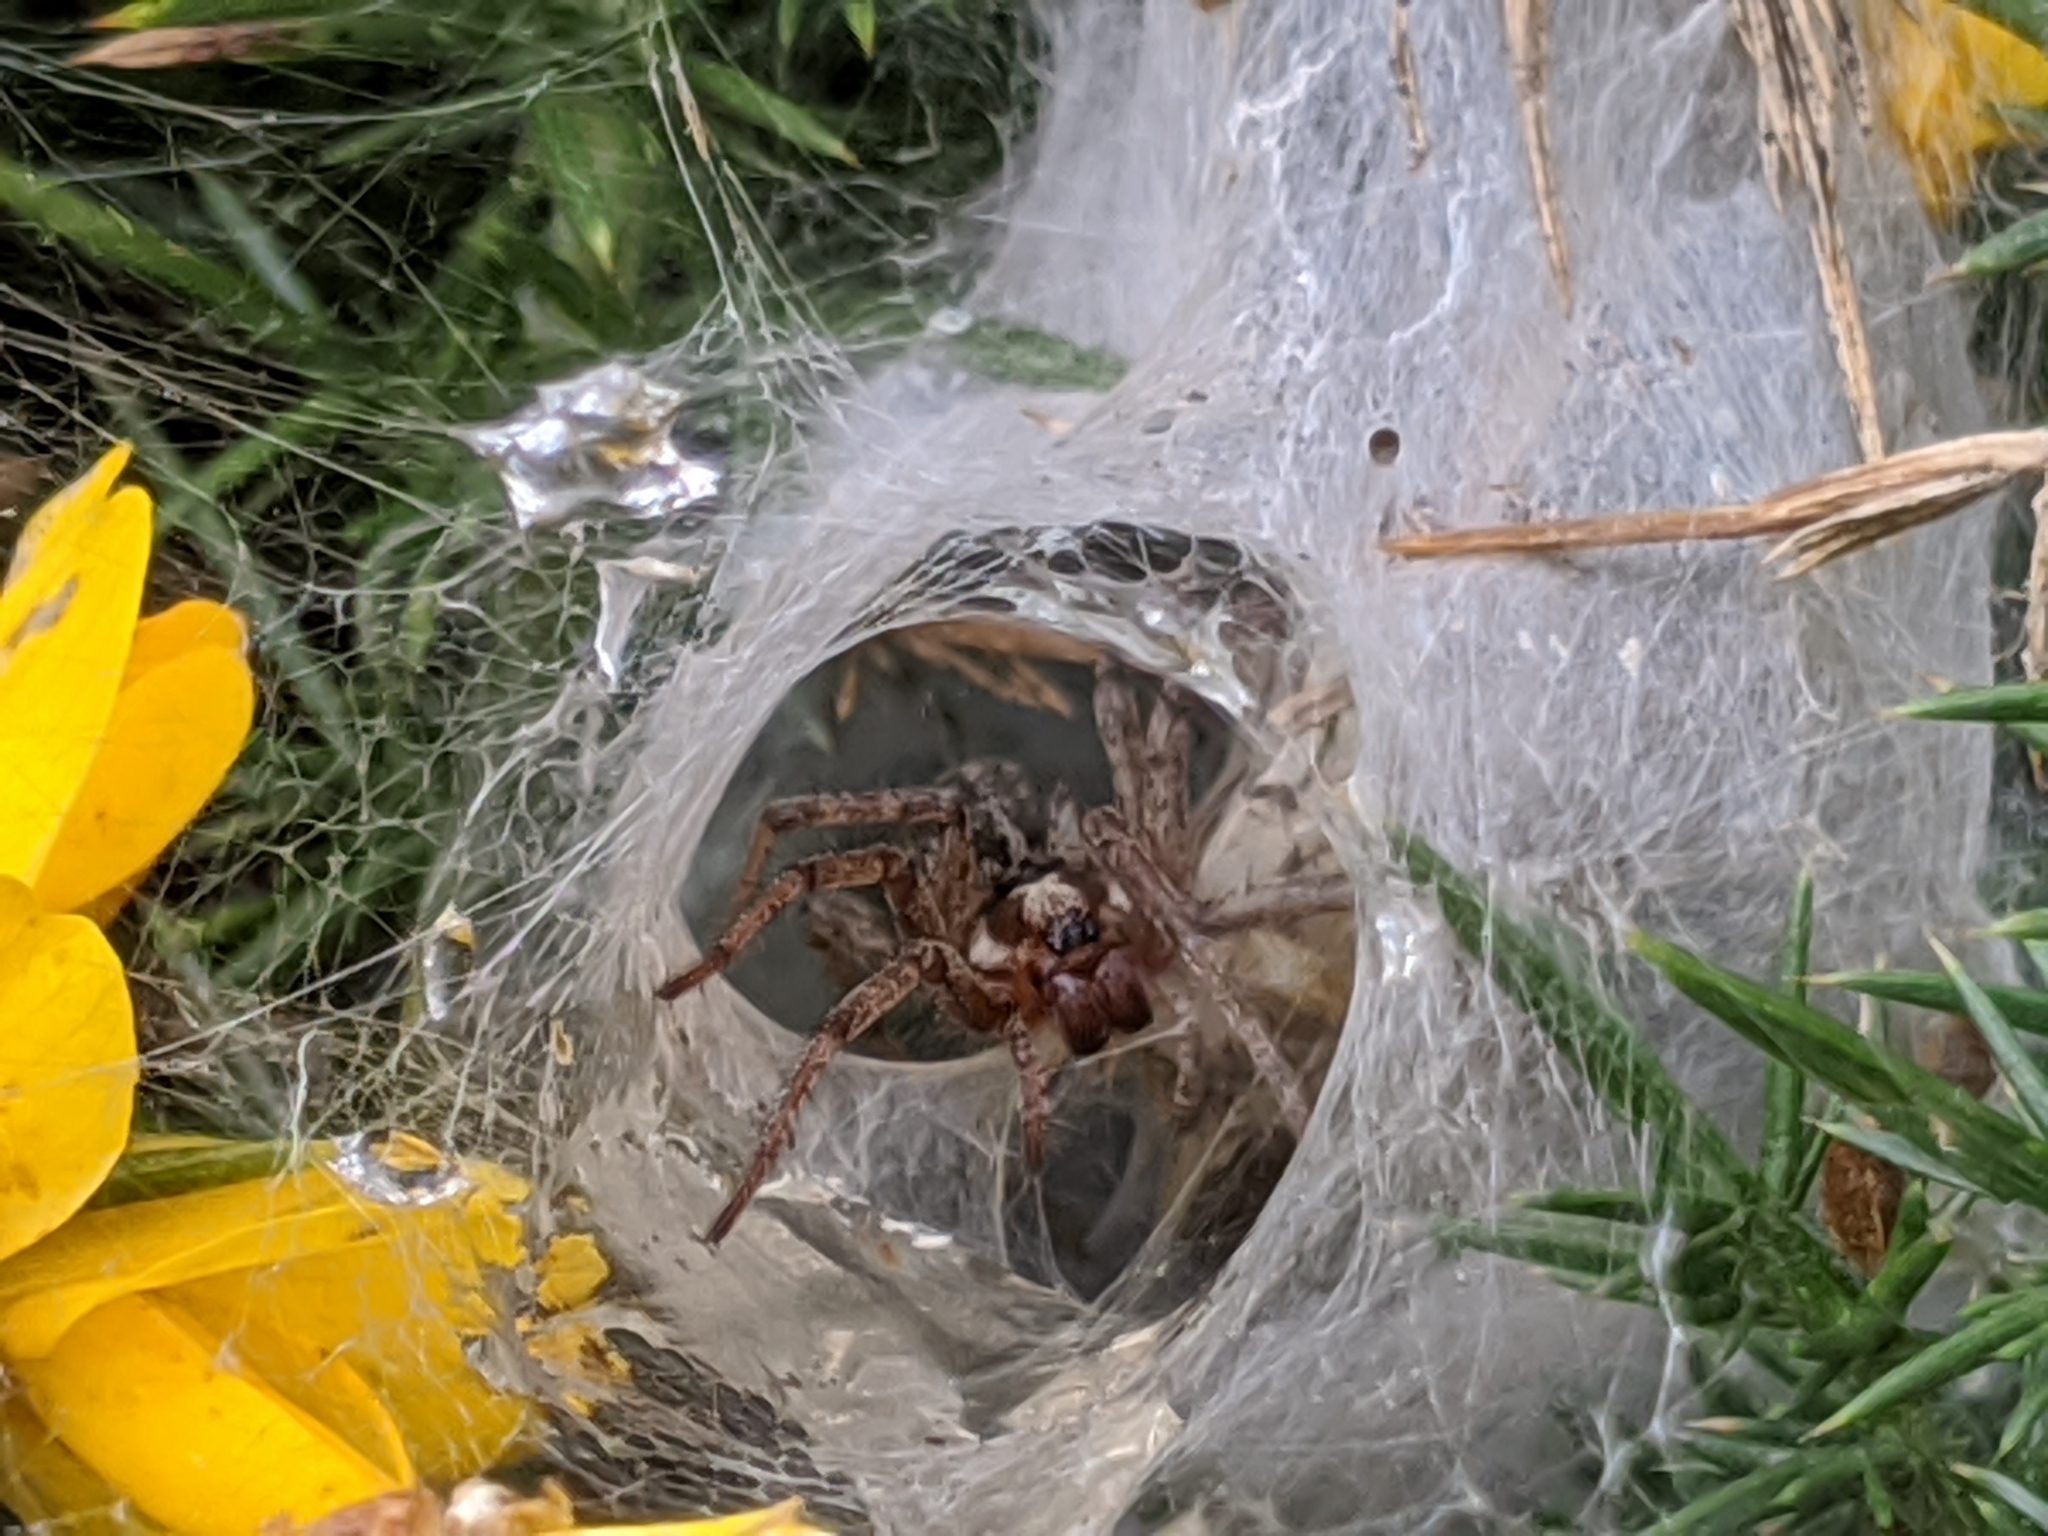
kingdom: Animalia
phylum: Arthropoda
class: Arachnida
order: Araneae
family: Agelenidae
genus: Agelena
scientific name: Agelena labyrinthica
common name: Labyrinth spider
